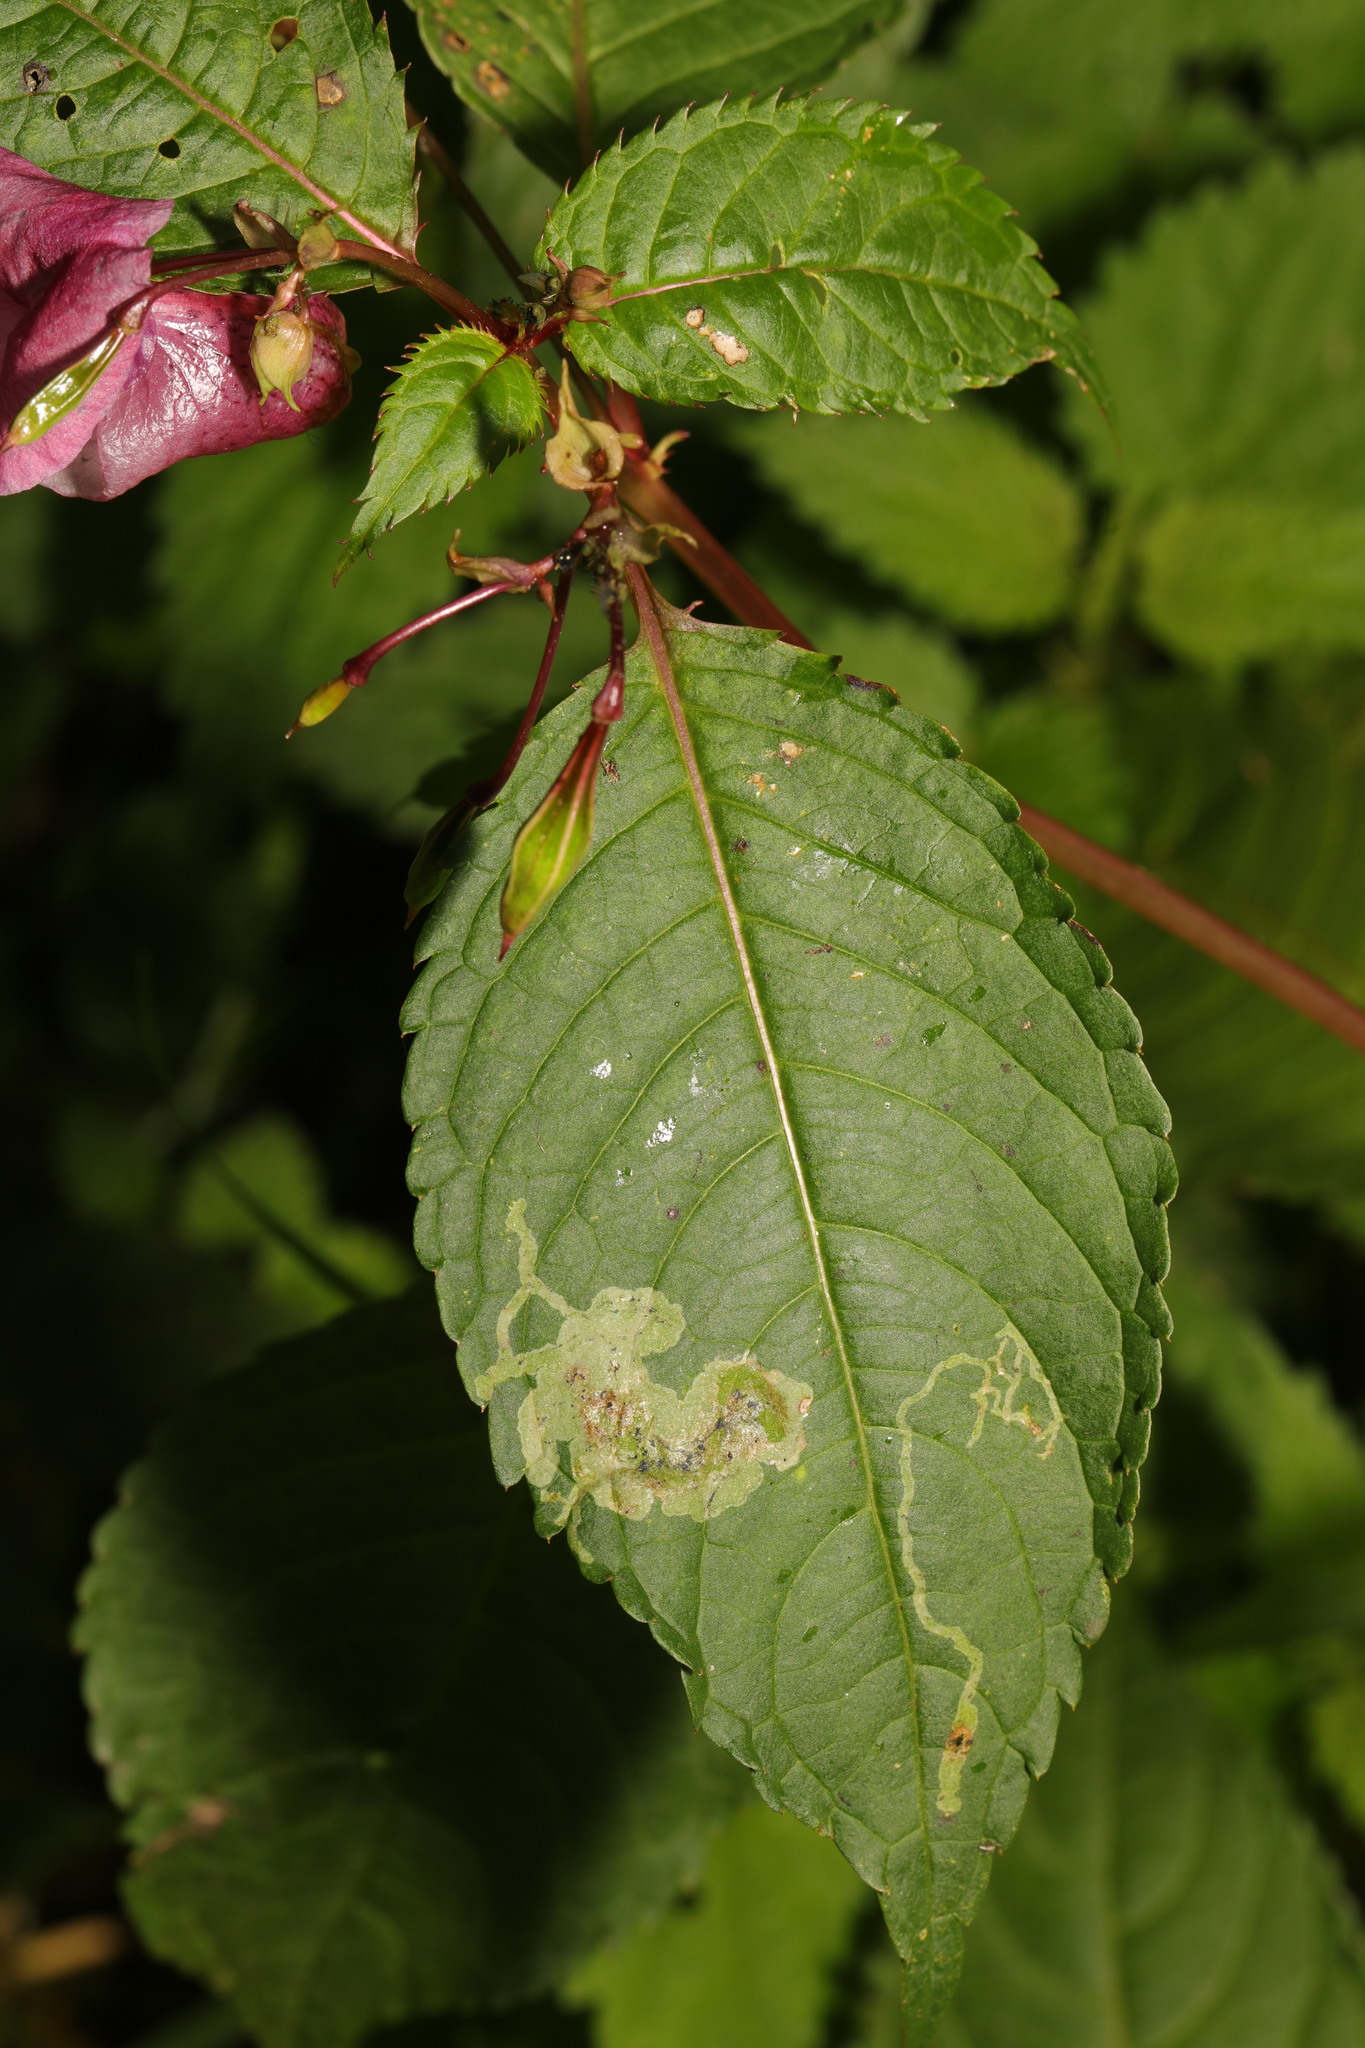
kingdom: Animalia
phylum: Arthropoda
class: Insecta
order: Diptera
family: Agromyzidae
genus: Phytoliriomyza
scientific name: Phytoliriomyza melampyga
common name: Jewelweed leaf-miner fly
